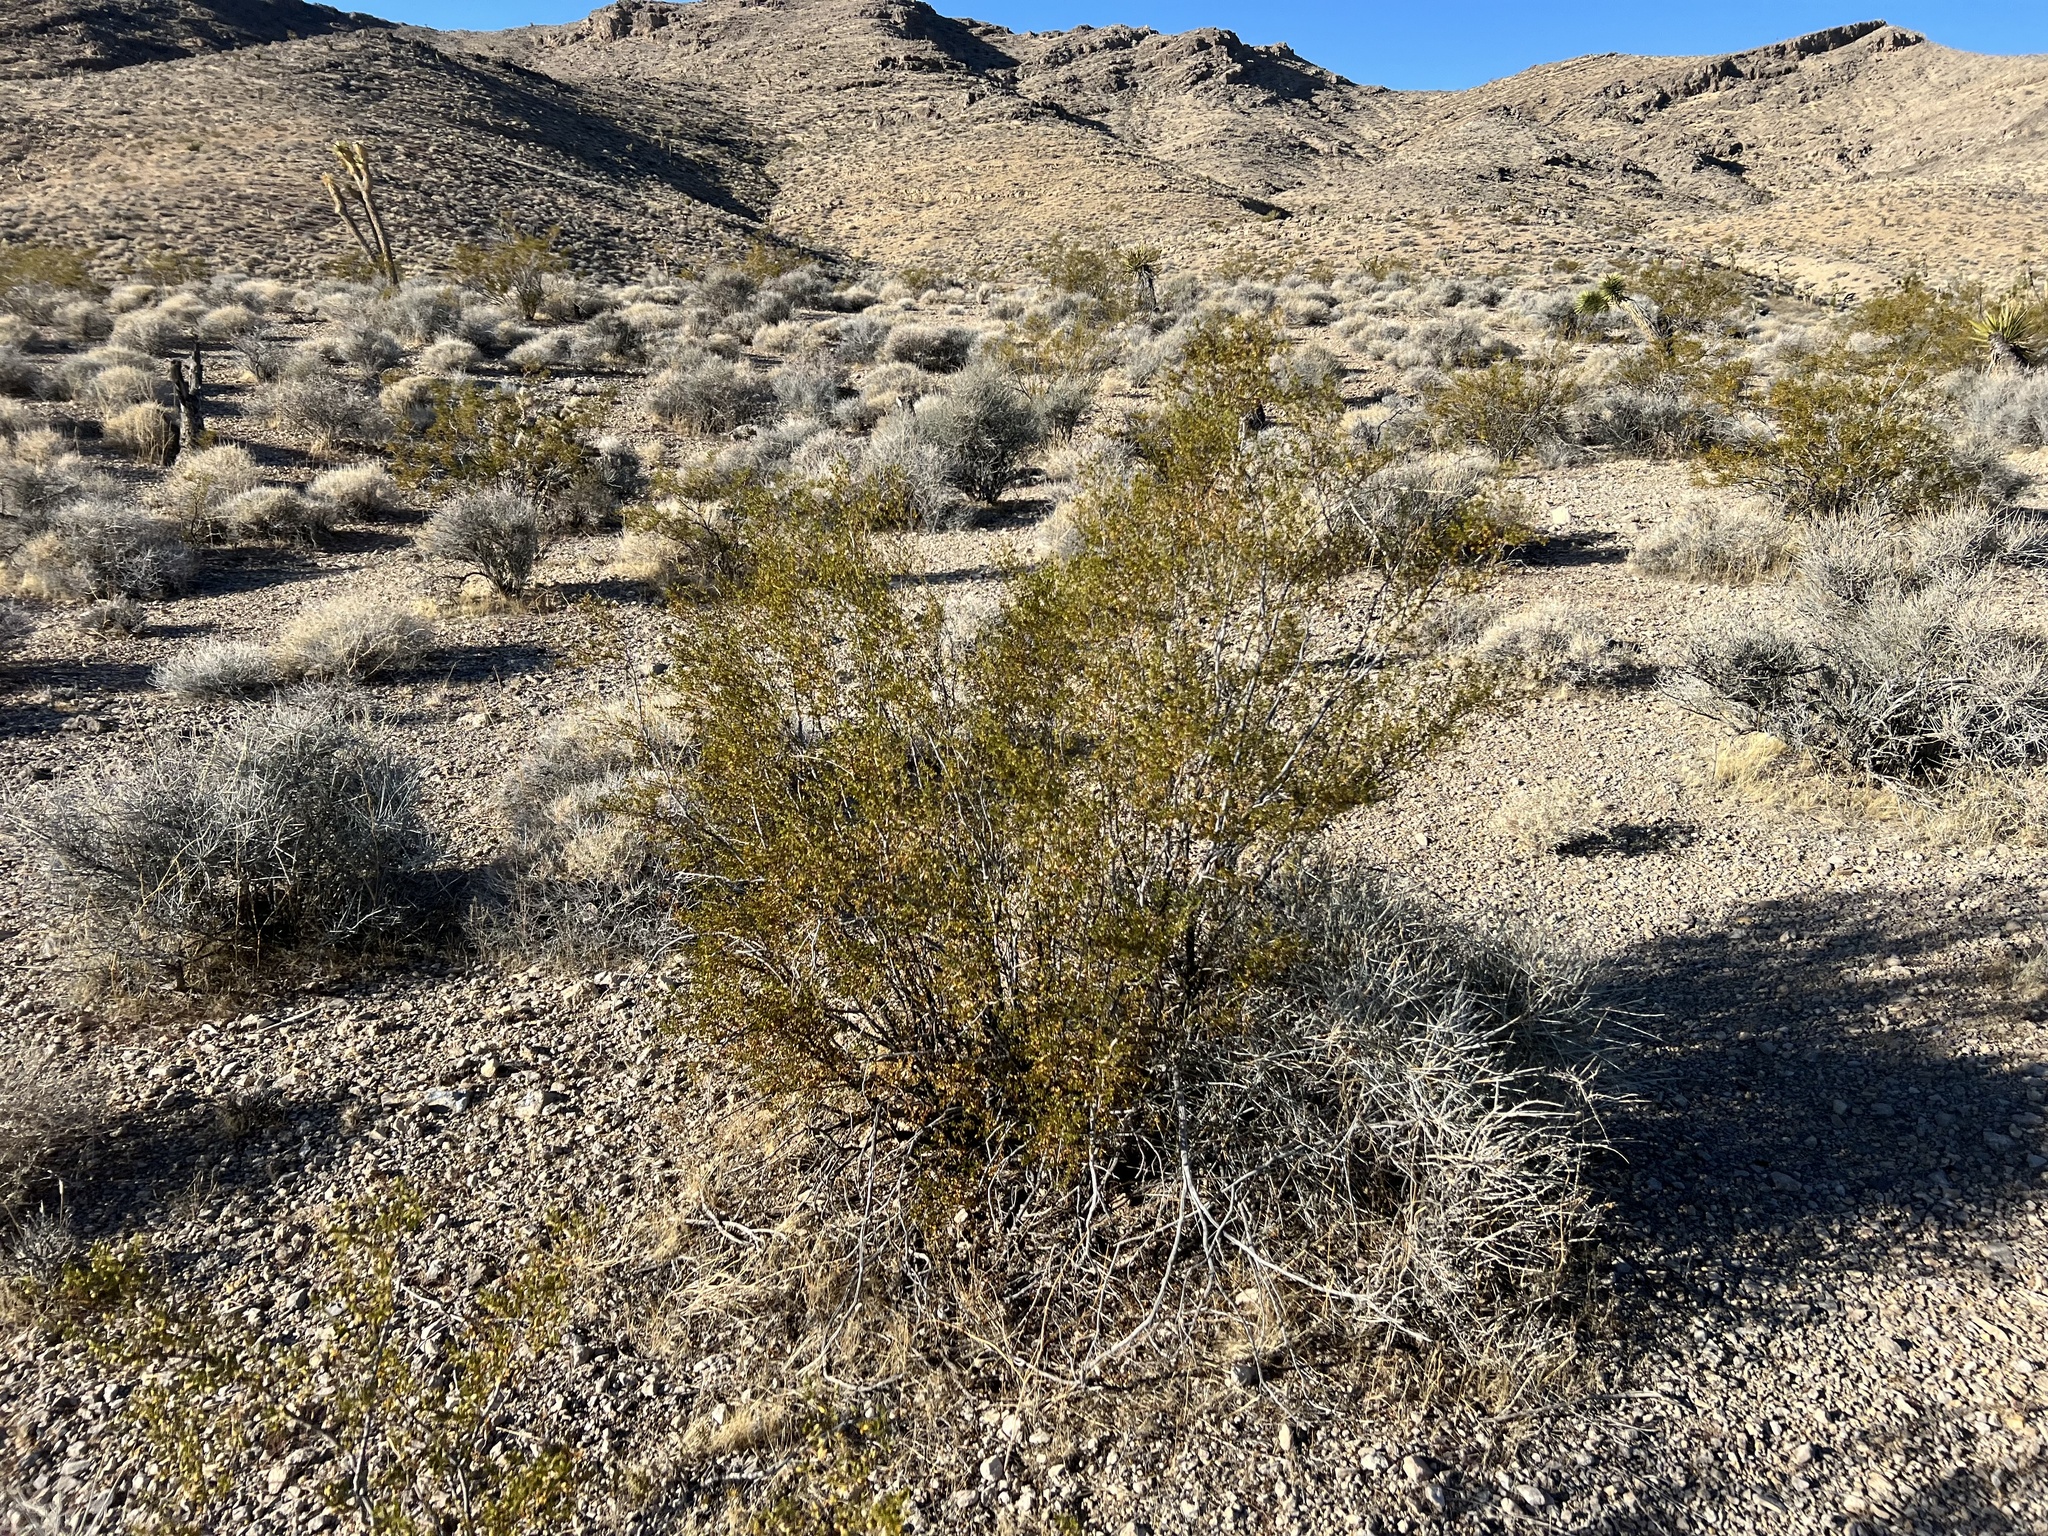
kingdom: Plantae
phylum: Tracheophyta
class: Magnoliopsida
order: Zygophyllales
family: Zygophyllaceae
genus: Larrea
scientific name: Larrea tridentata
